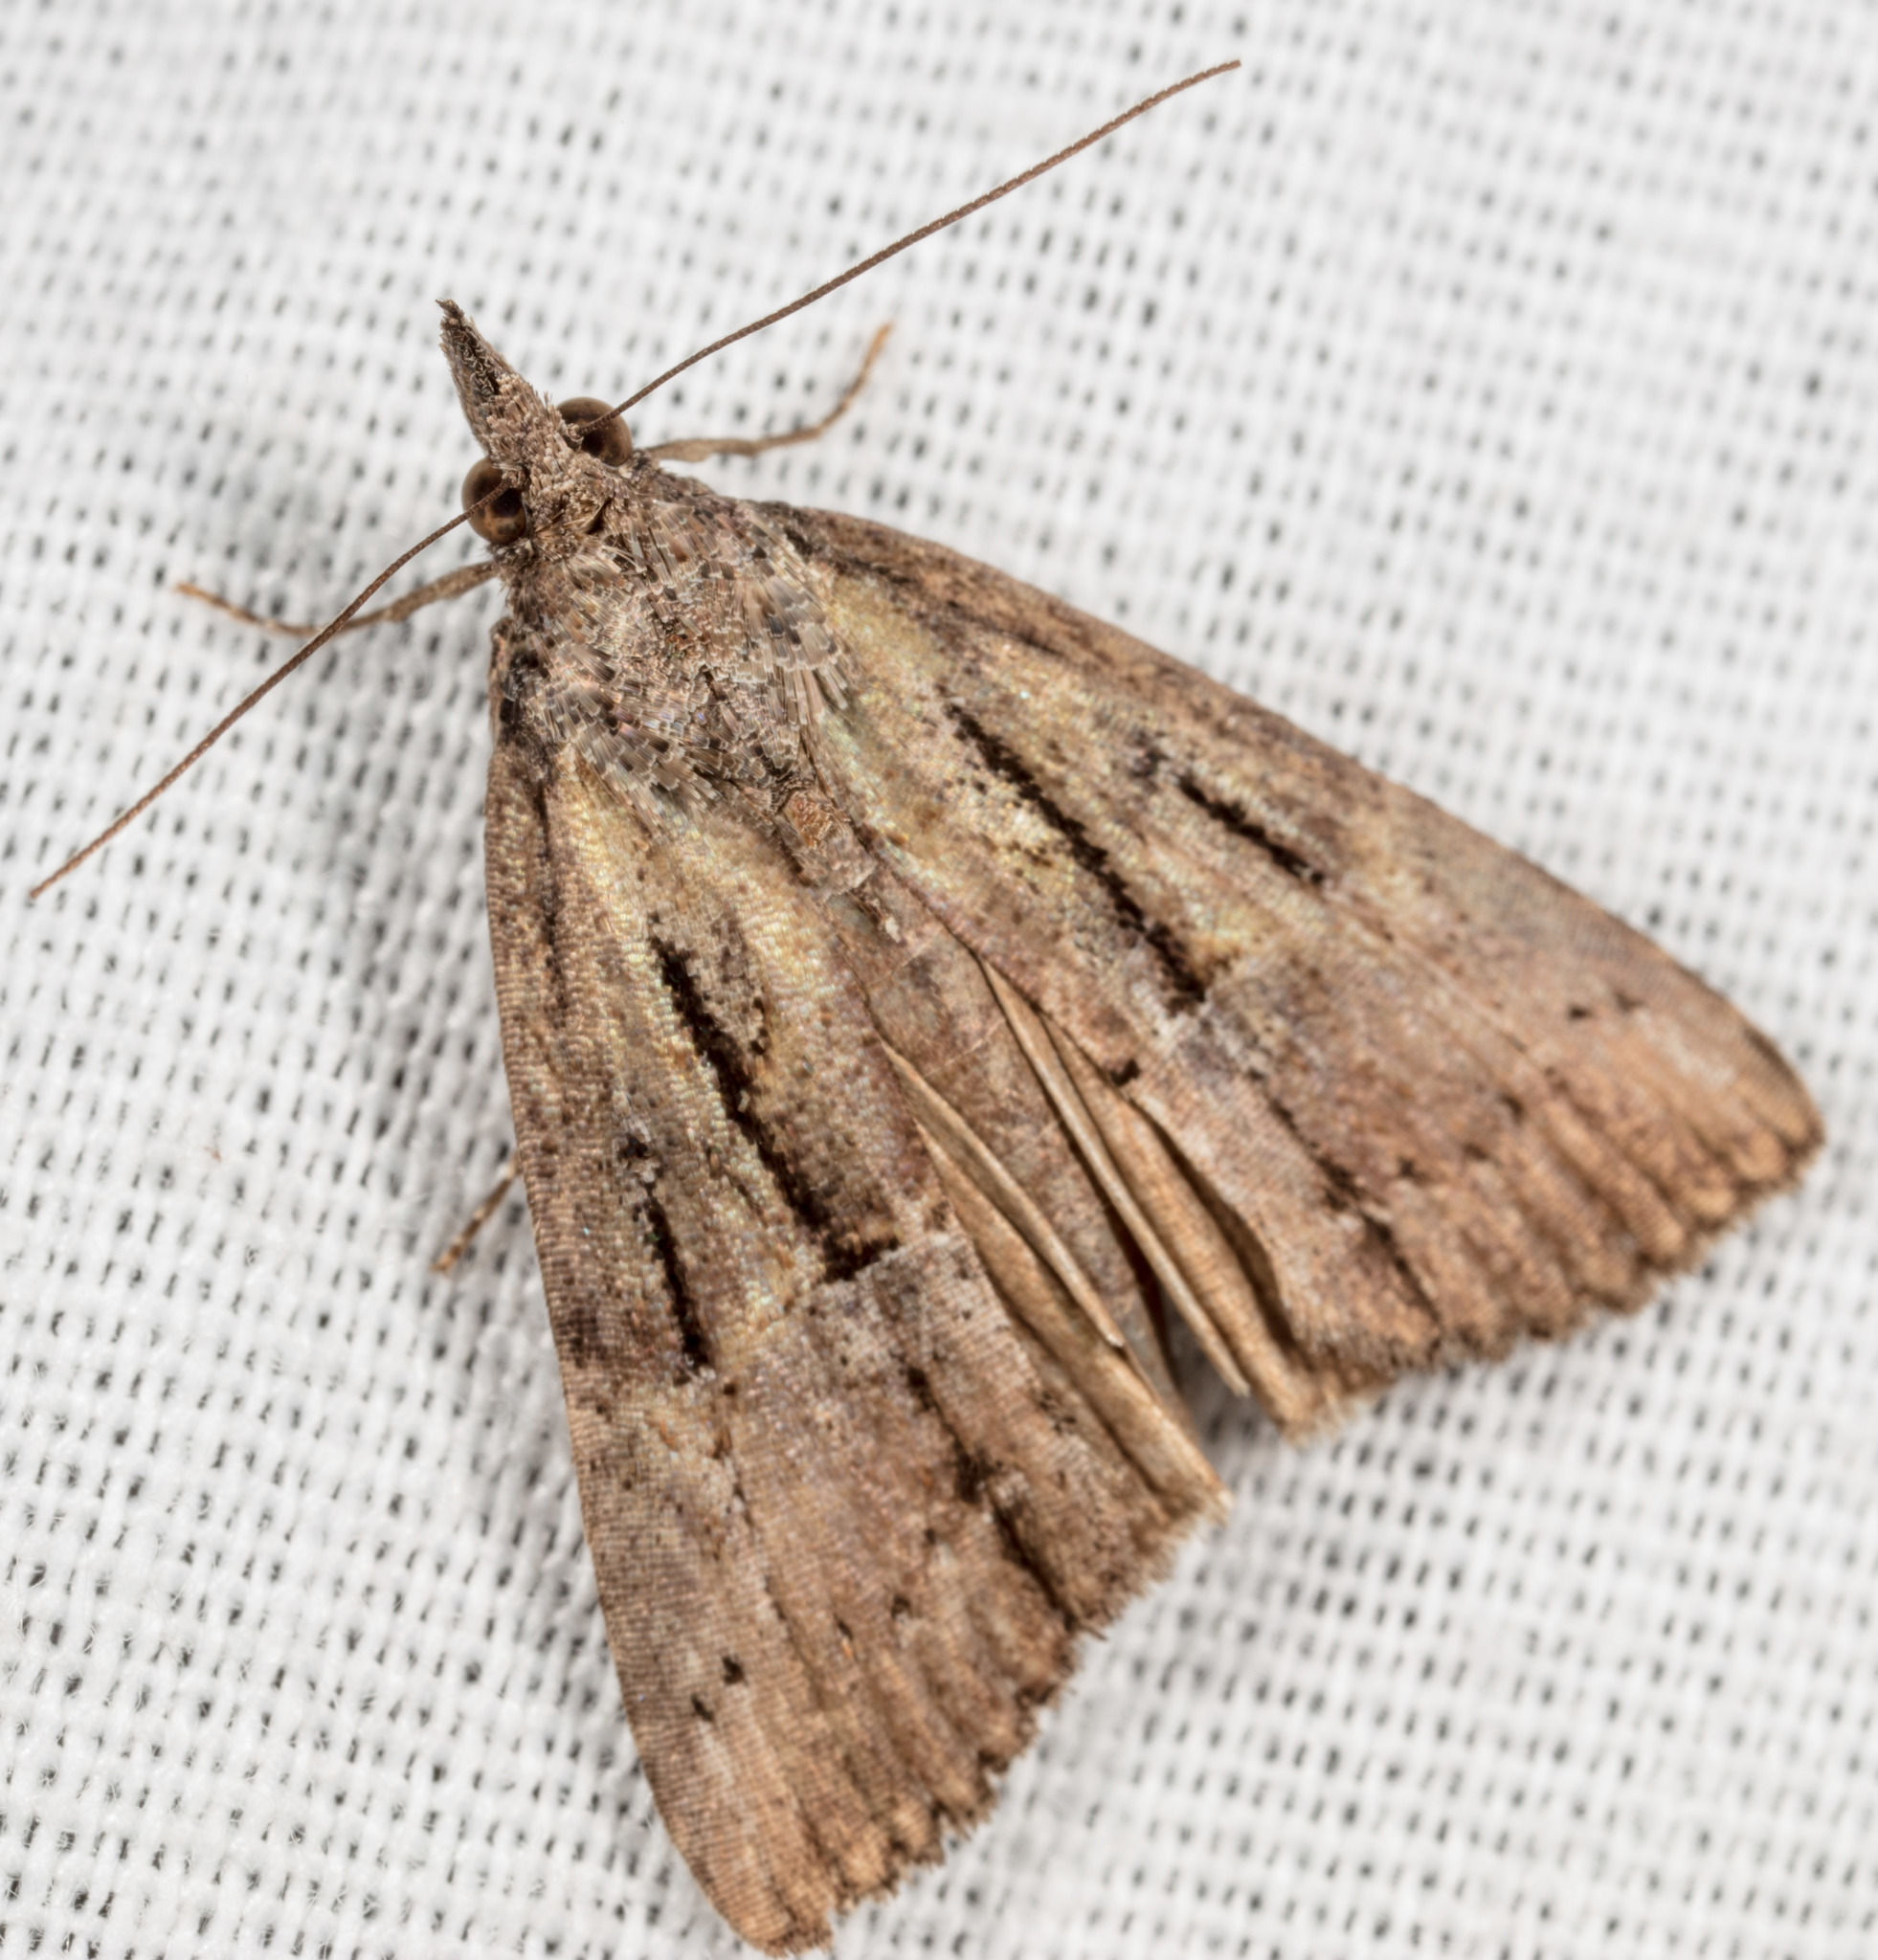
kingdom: Animalia
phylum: Arthropoda
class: Insecta
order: Lepidoptera
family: Erebidae
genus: Hypena
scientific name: Hypena scabra
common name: Green cloverworm
